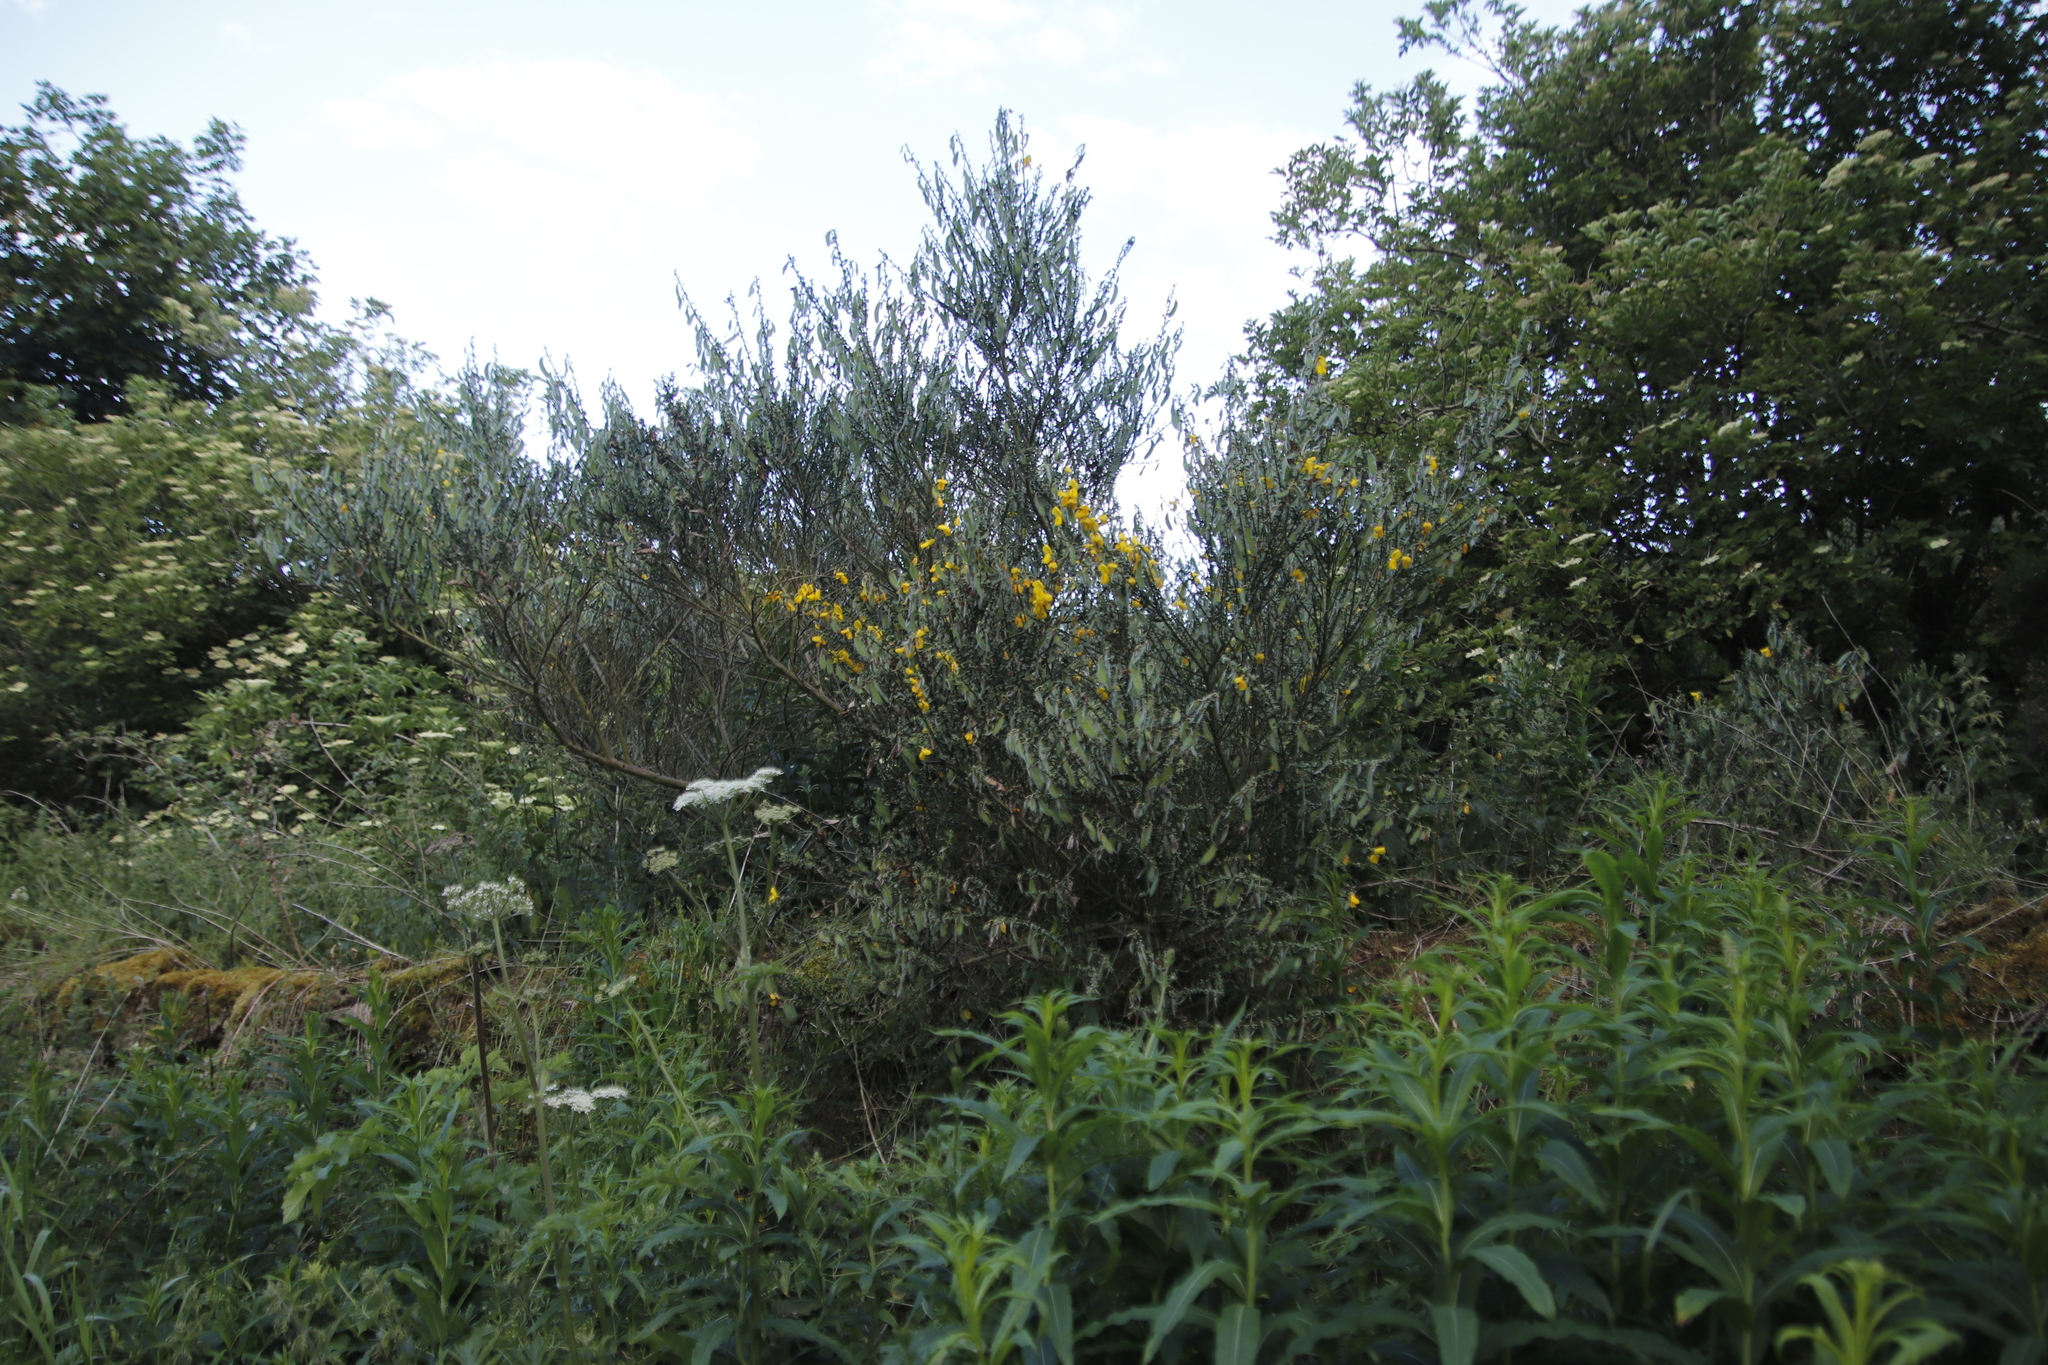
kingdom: Plantae
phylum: Tracheophyta
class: Magnoliopsida
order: Fabales
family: Fabaceae
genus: Cytisus
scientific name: Cytisus scoparius
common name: Scotch broom
